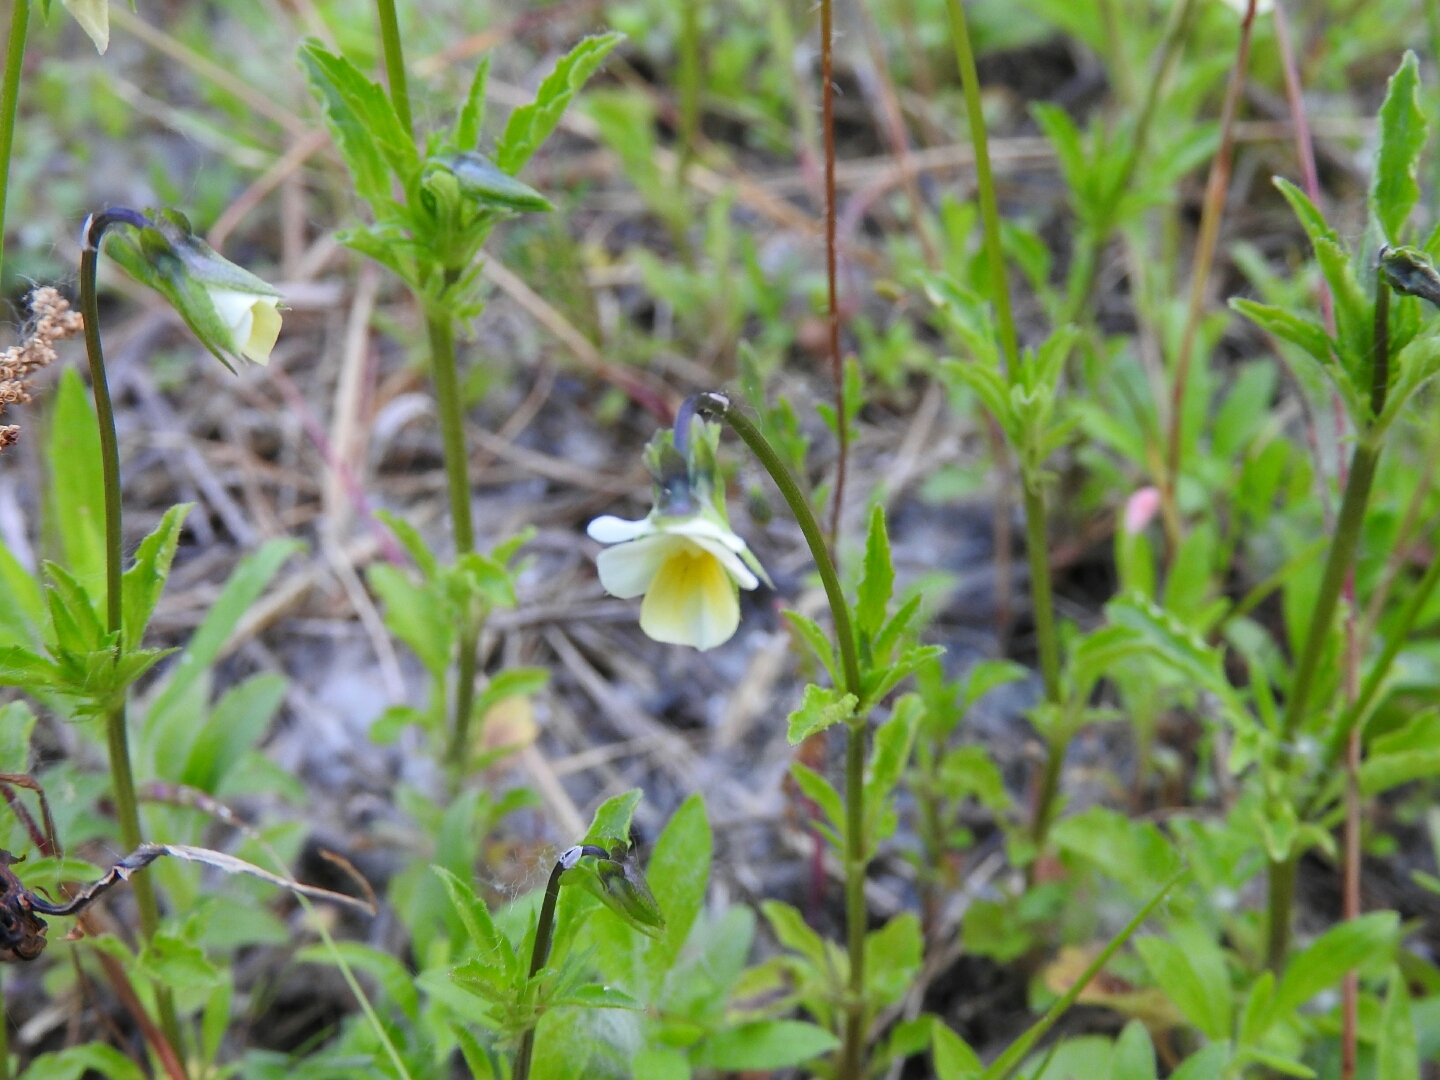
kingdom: Plantae
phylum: Tracheophyta
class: Magnoliopsida
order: Malpighiales
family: Violaceae
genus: Viola
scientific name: Viola arvensis
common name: Field pansy
